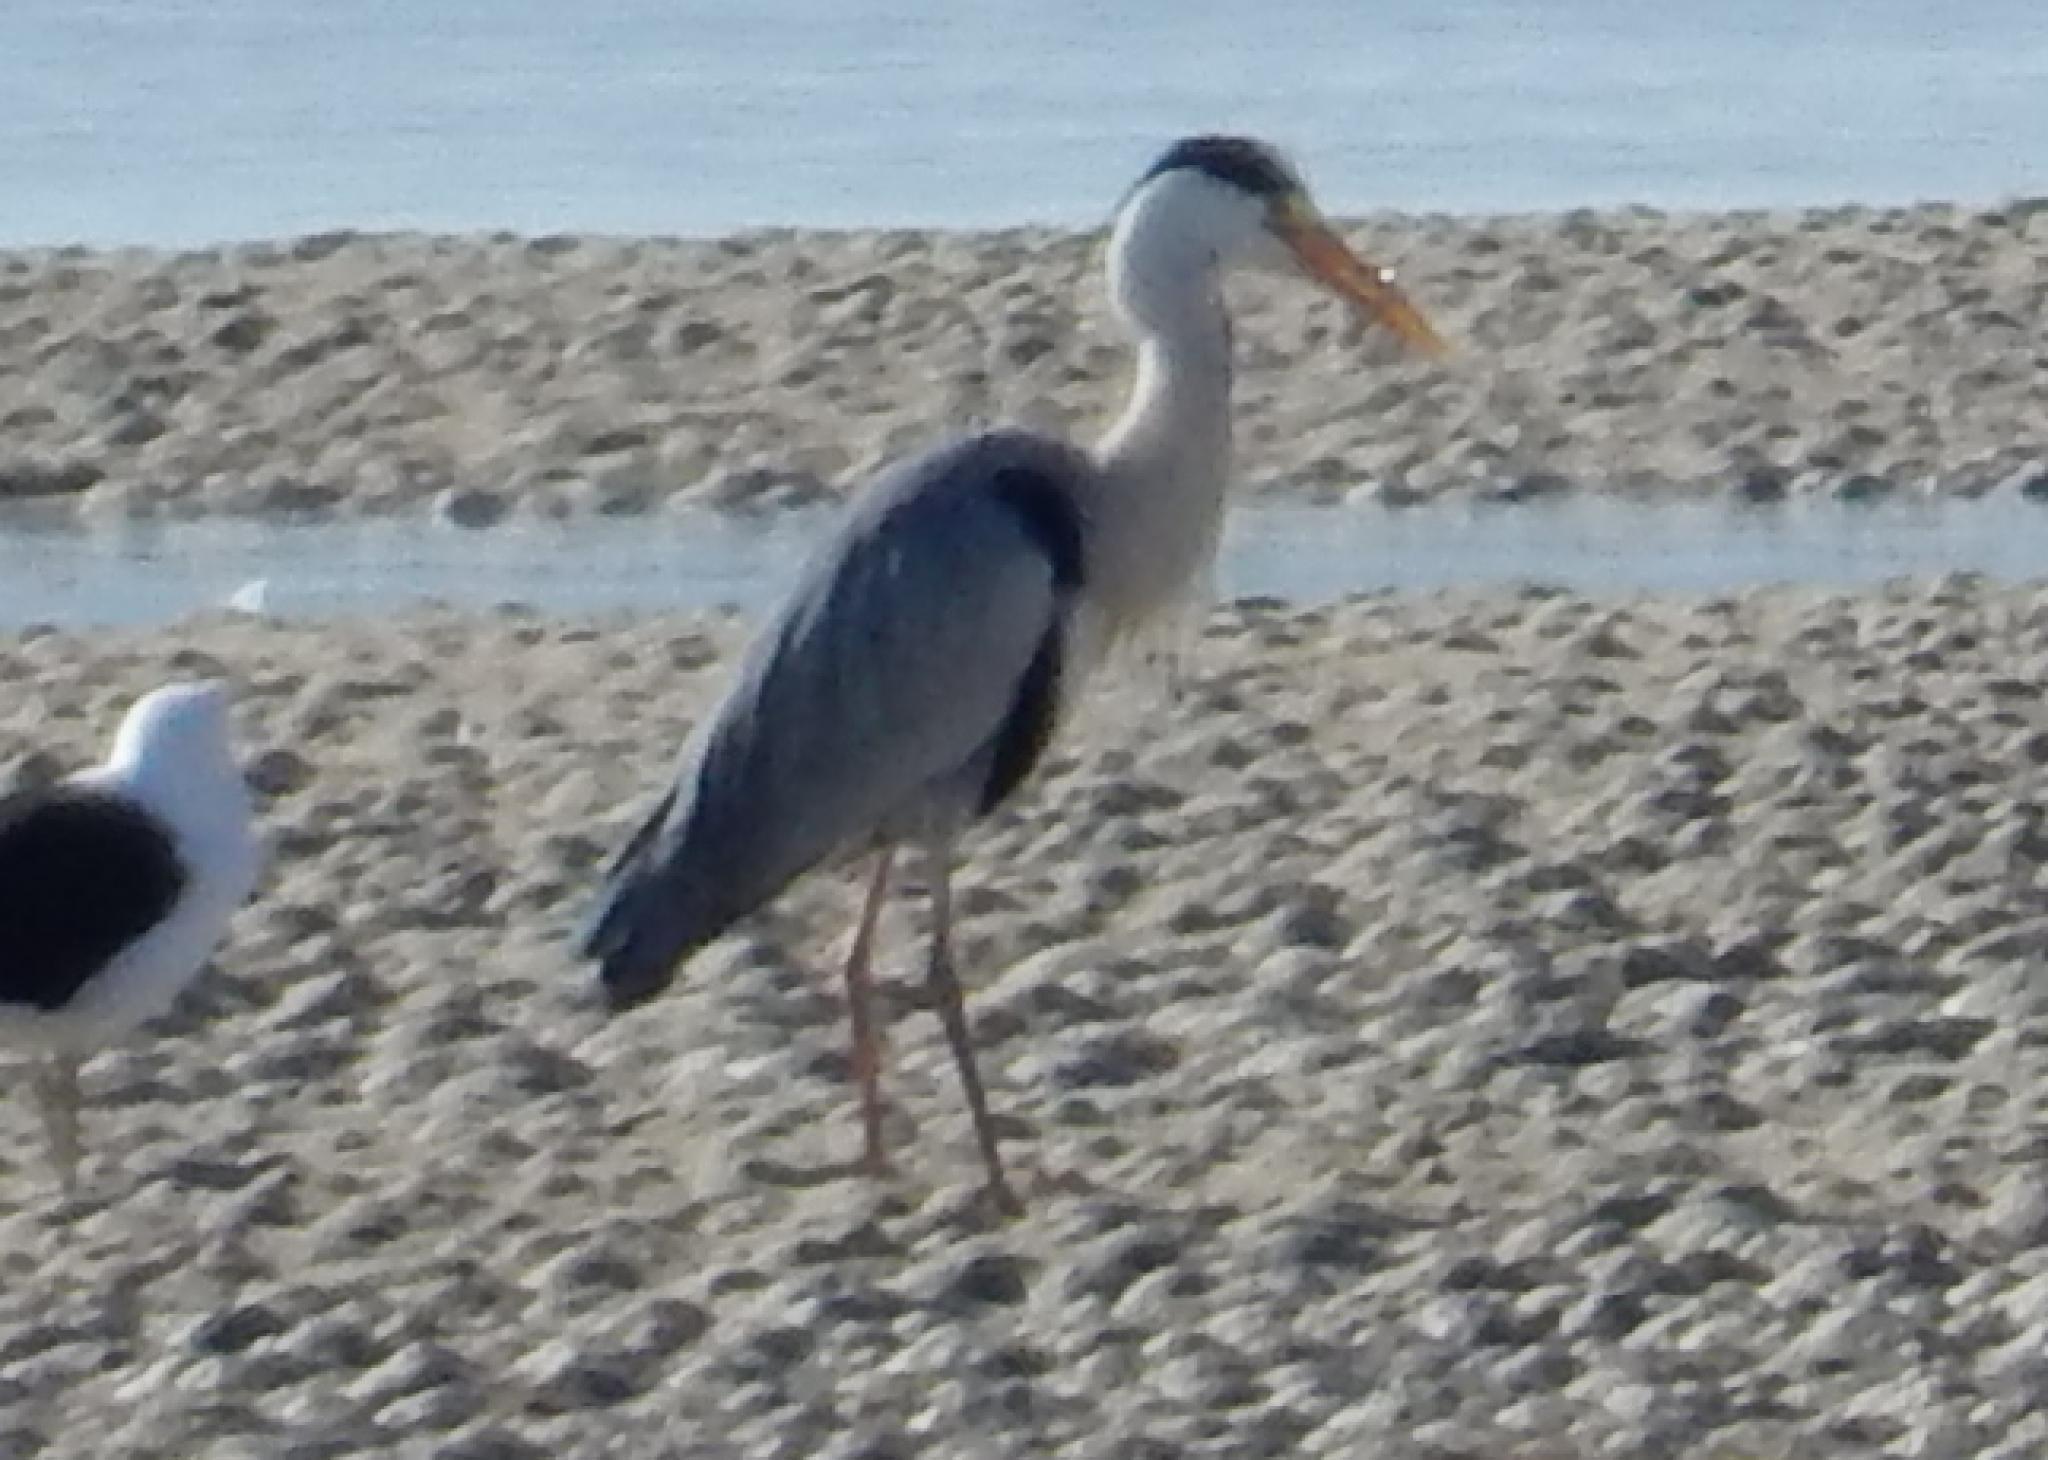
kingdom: Animalia
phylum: Chordata
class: Aves
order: Pelecaniformes
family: Ardeidae
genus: Ardea
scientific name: Ardea cinerea
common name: Grey heron
